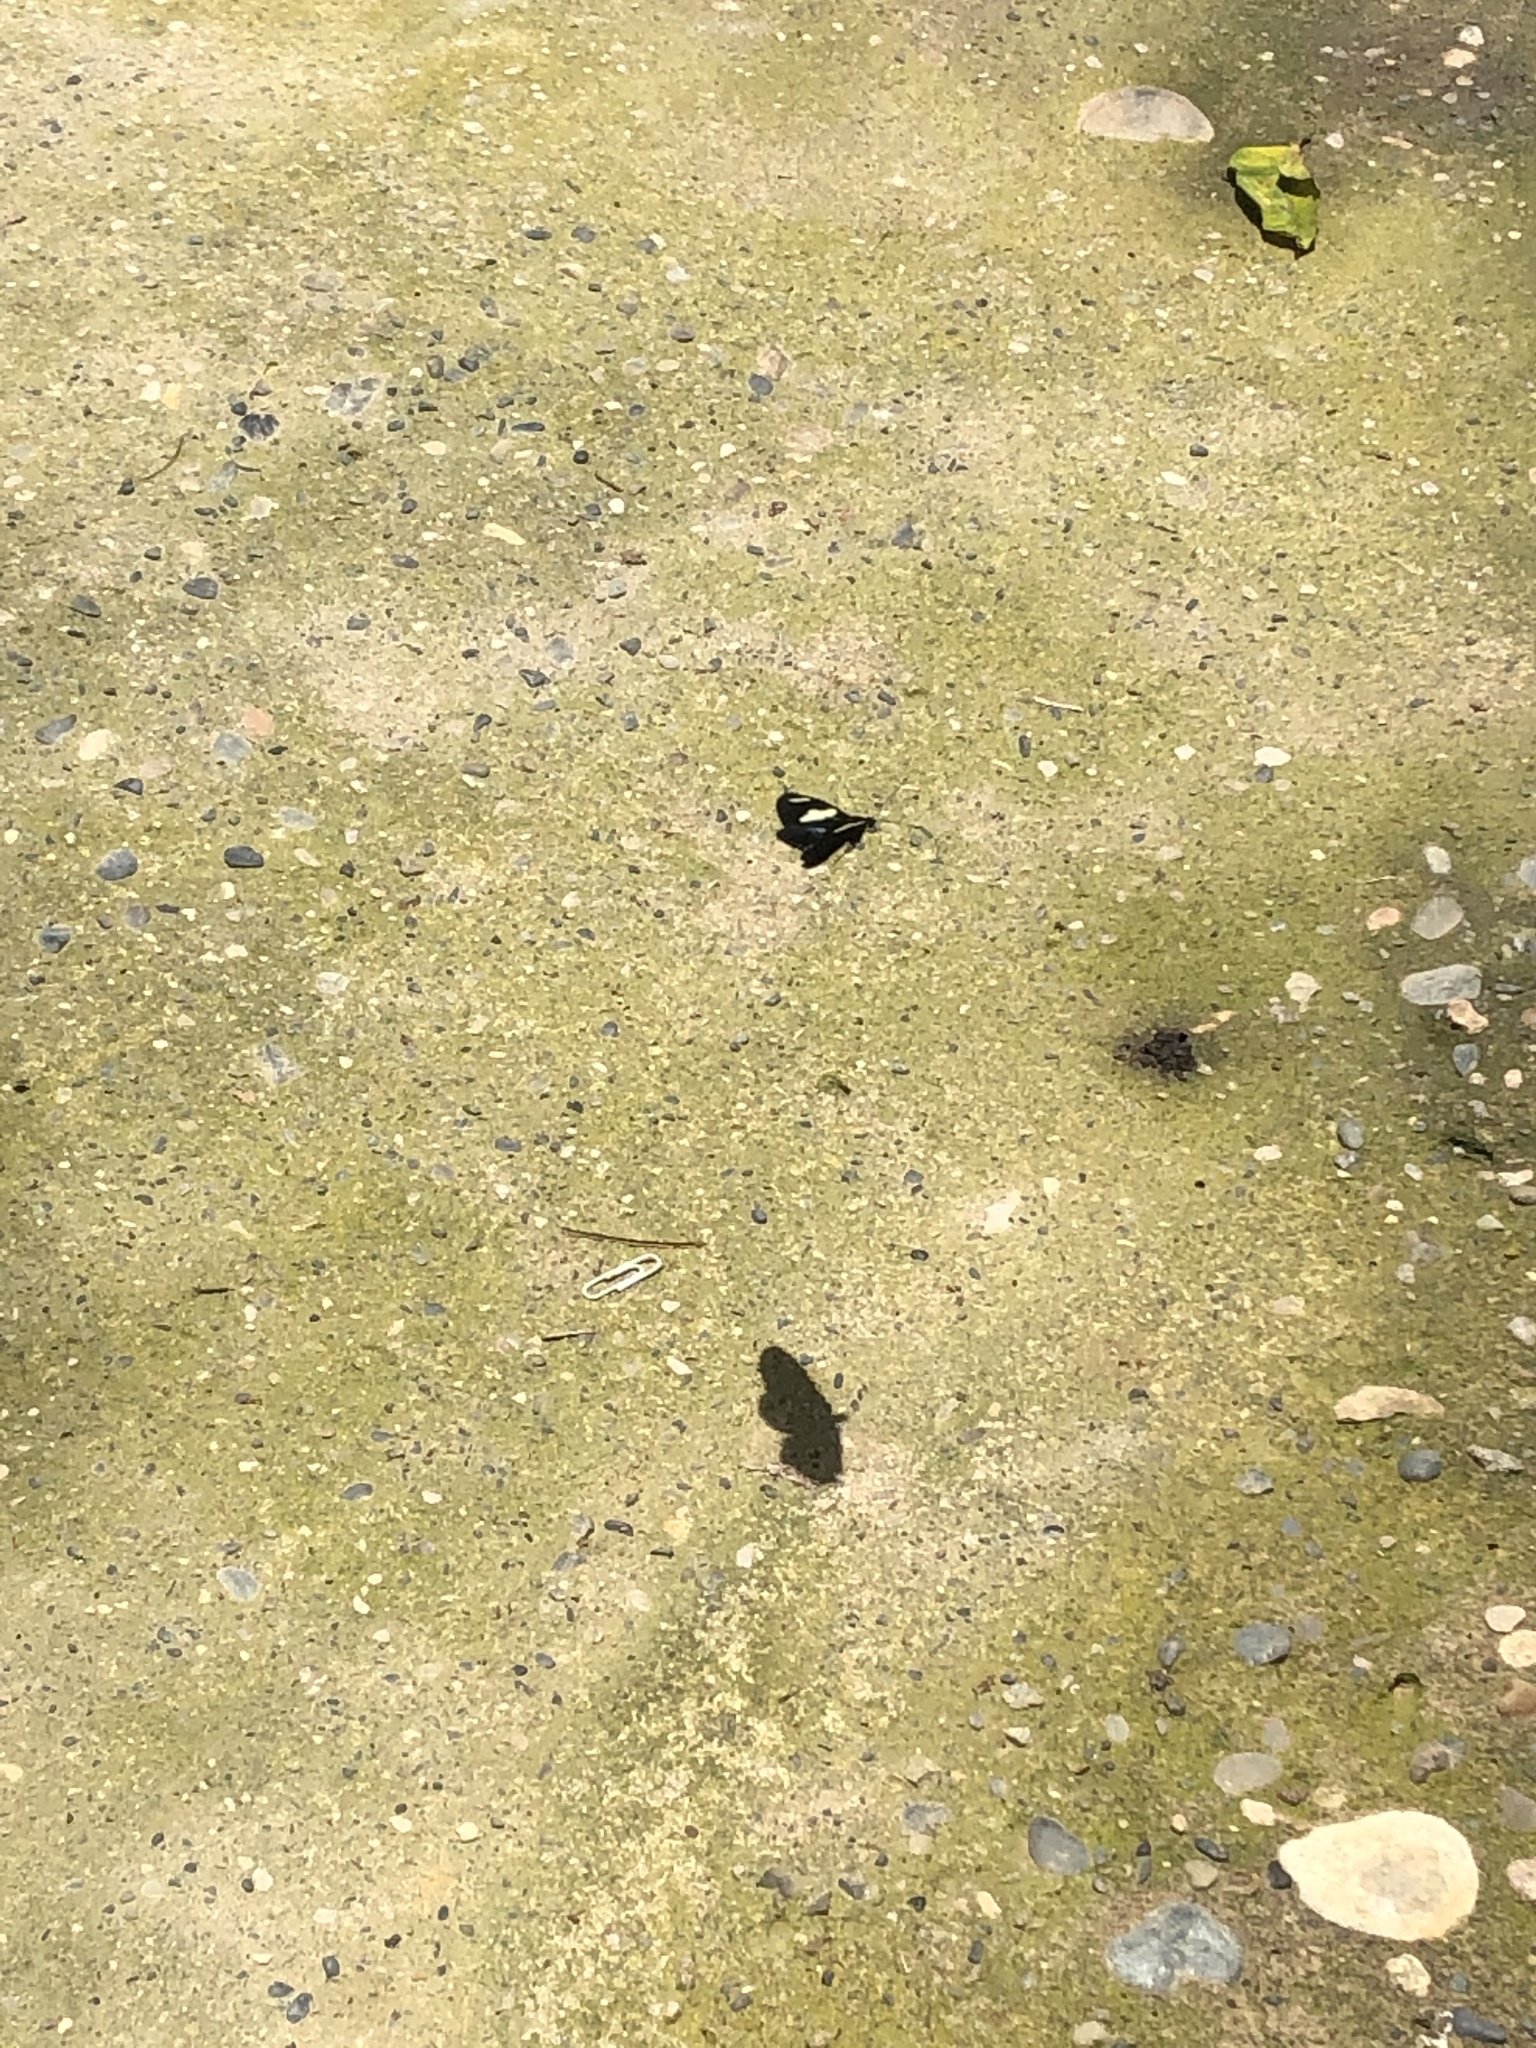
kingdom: Animalia
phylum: Arthropoda
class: Insecta
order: Lepidoptera
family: Nymphalidae
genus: Heliconius
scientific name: Heliconius doris
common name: Doris longwing
